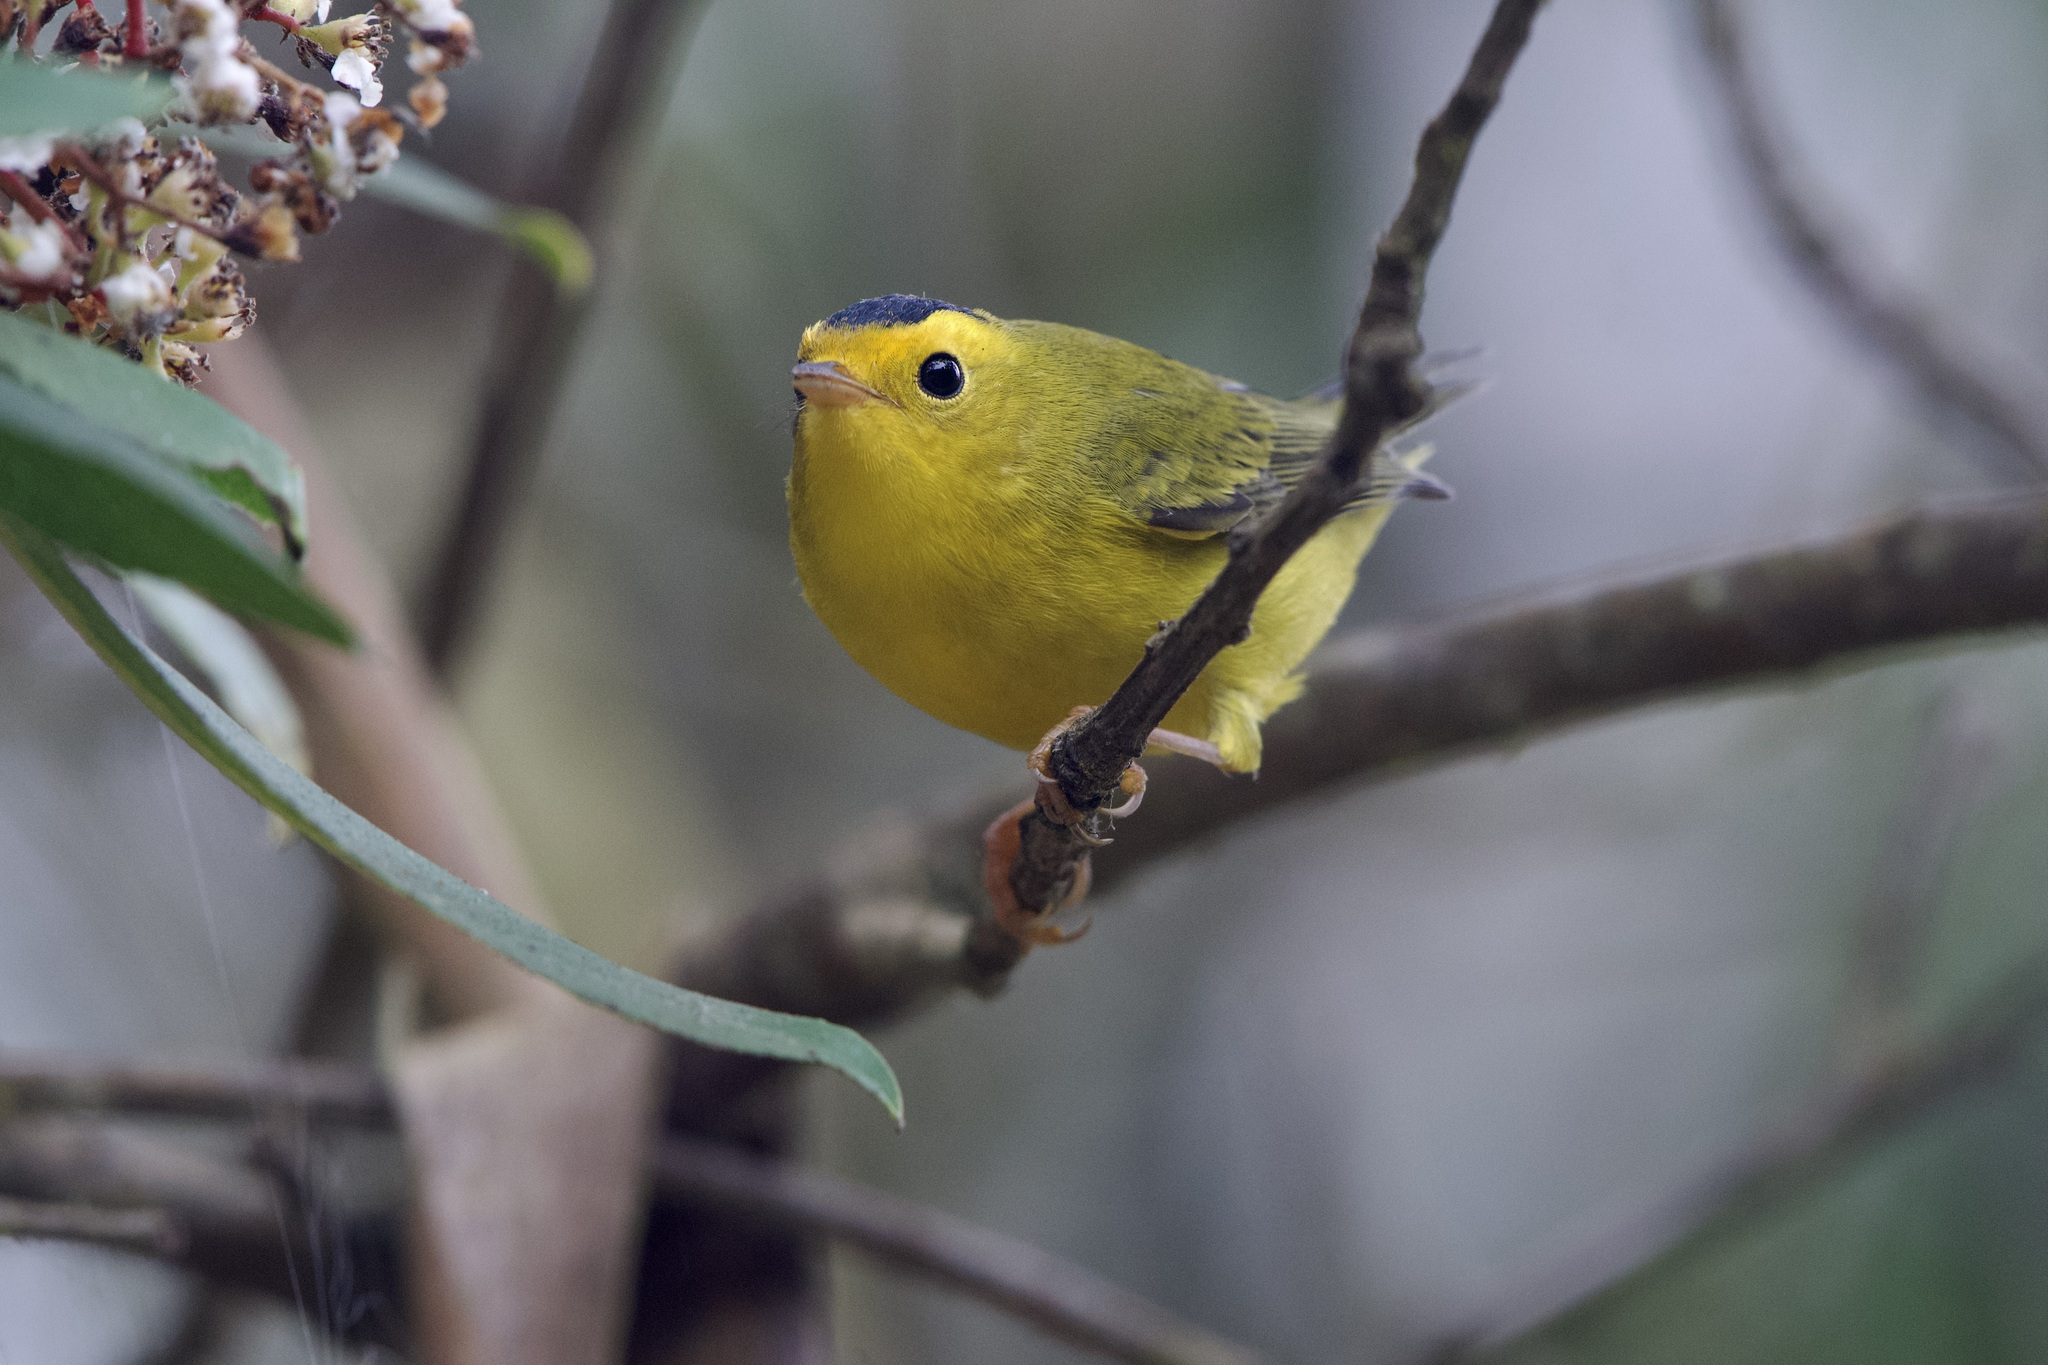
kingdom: Animalia
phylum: Chordata
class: Aves
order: Passeriformes
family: Parulidae
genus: Cardellina
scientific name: Cardellina pusilla
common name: Wilson's warbler
